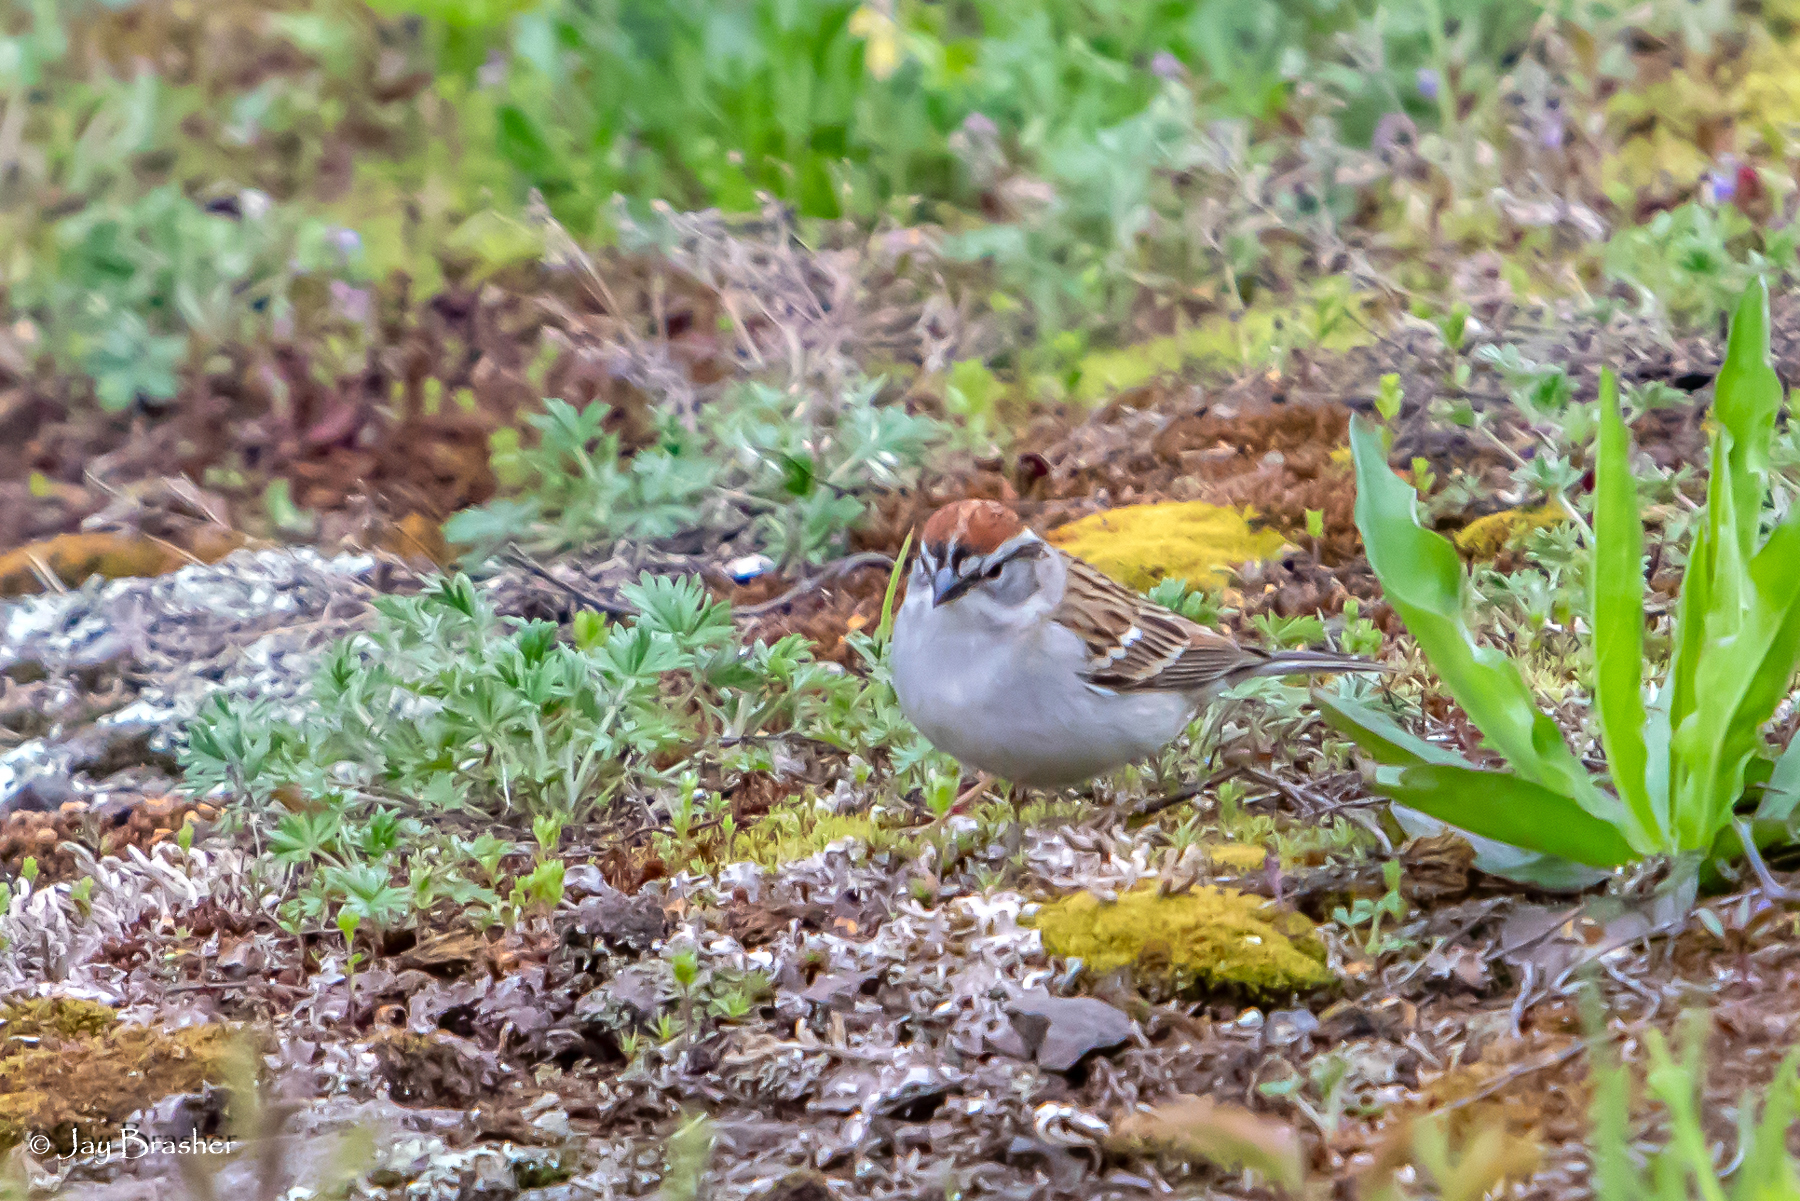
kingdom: Animalia
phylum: Chordata
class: Aves
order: Passeriformes
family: Passerellidae
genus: Spizella
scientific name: Spizella passerina
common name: Chipping sparrow
